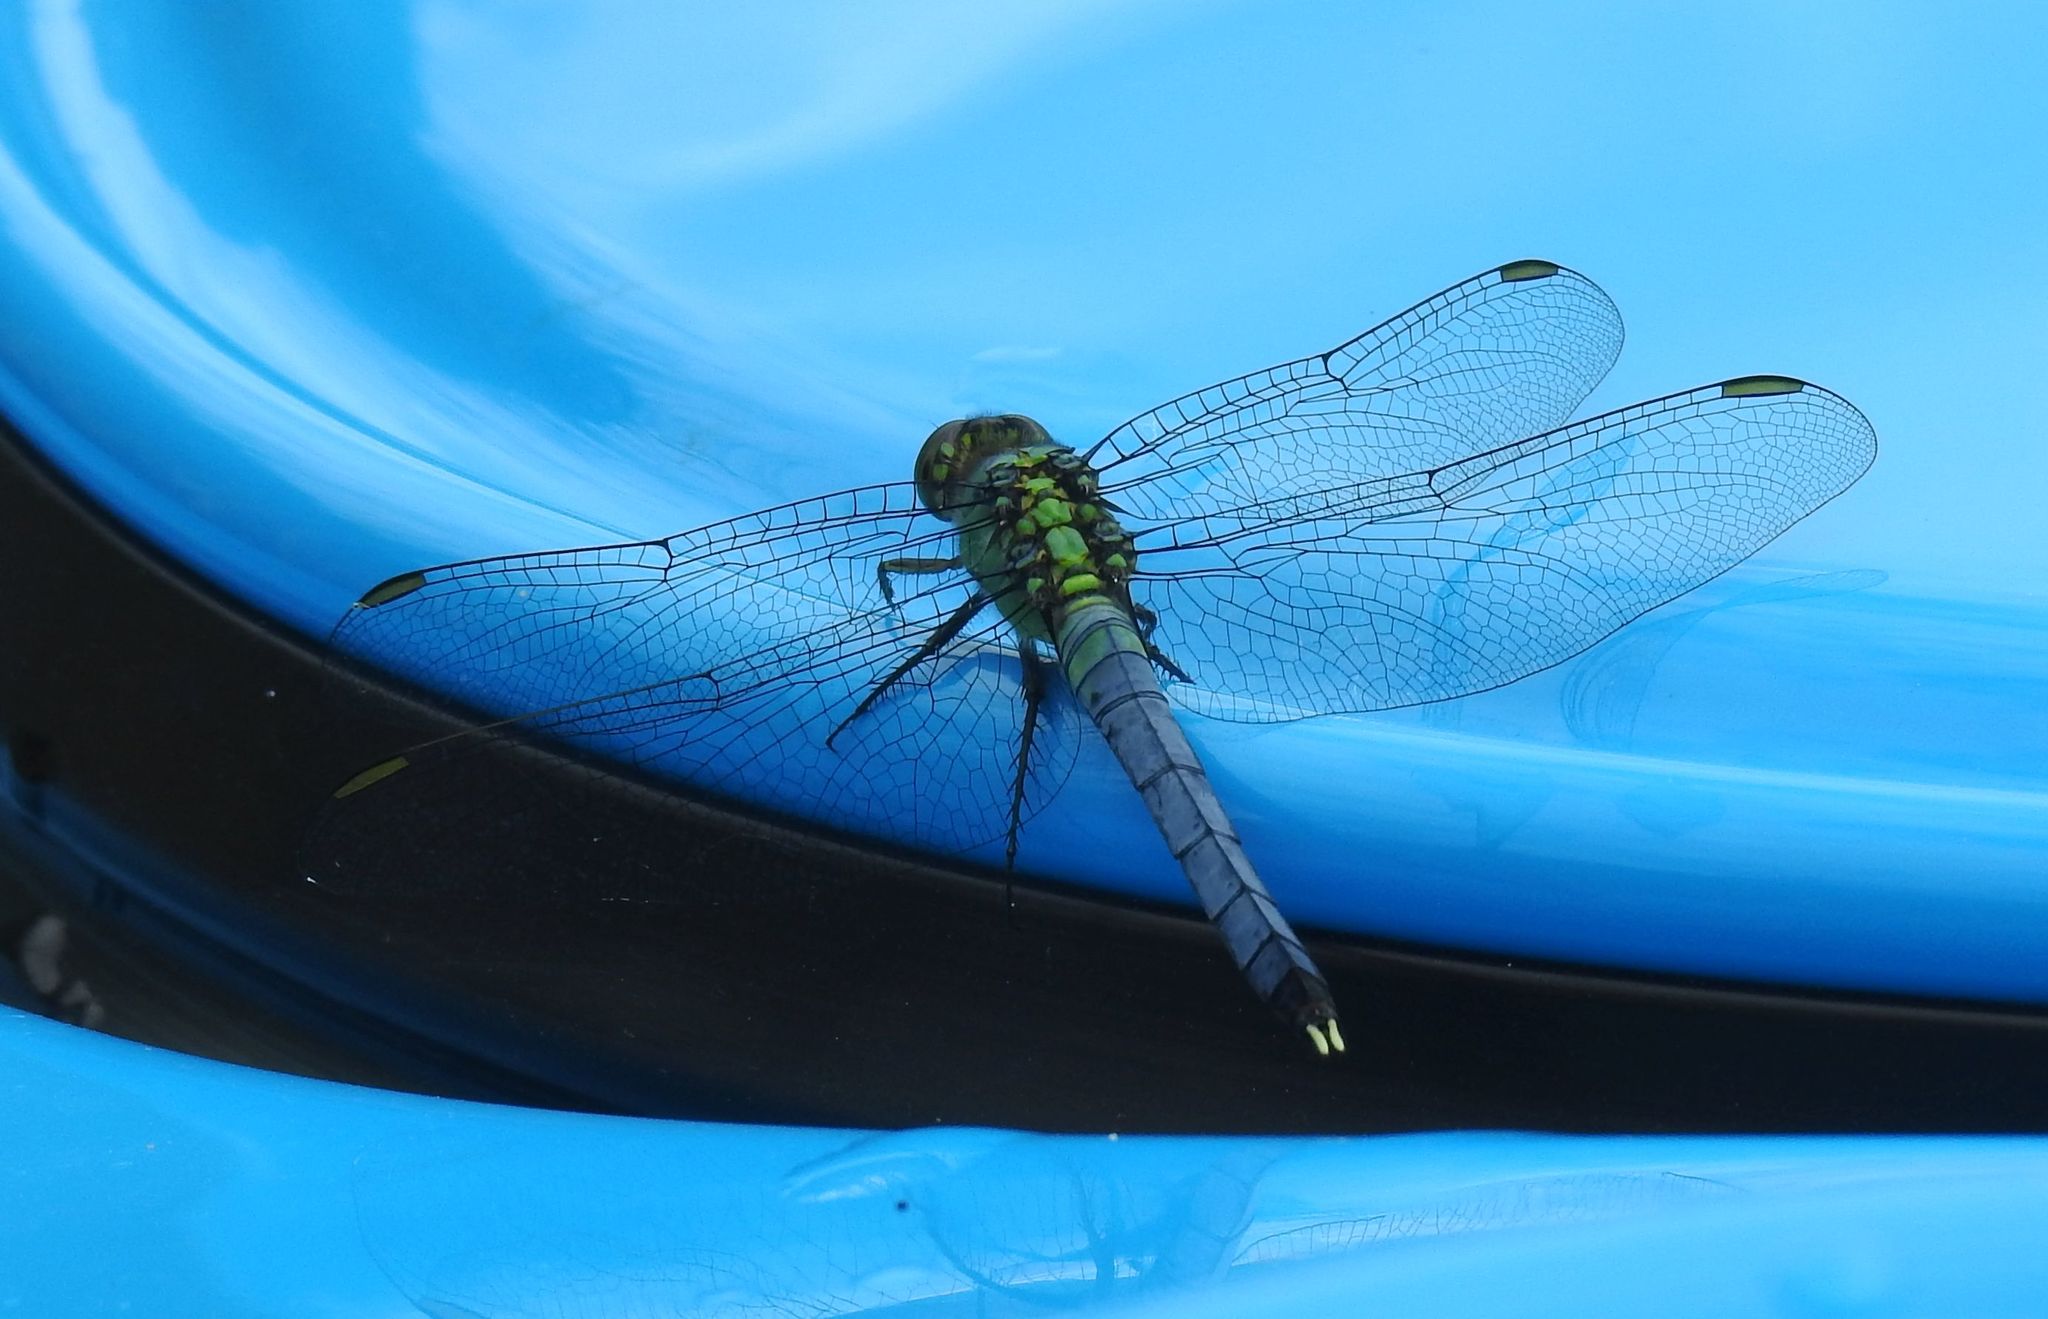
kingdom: Animalia
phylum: Arthropoda
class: Insecta
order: Odonata
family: Libellulidae
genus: Erythemis
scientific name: Erythemis simplicicollis
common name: Eastern pondhawk
